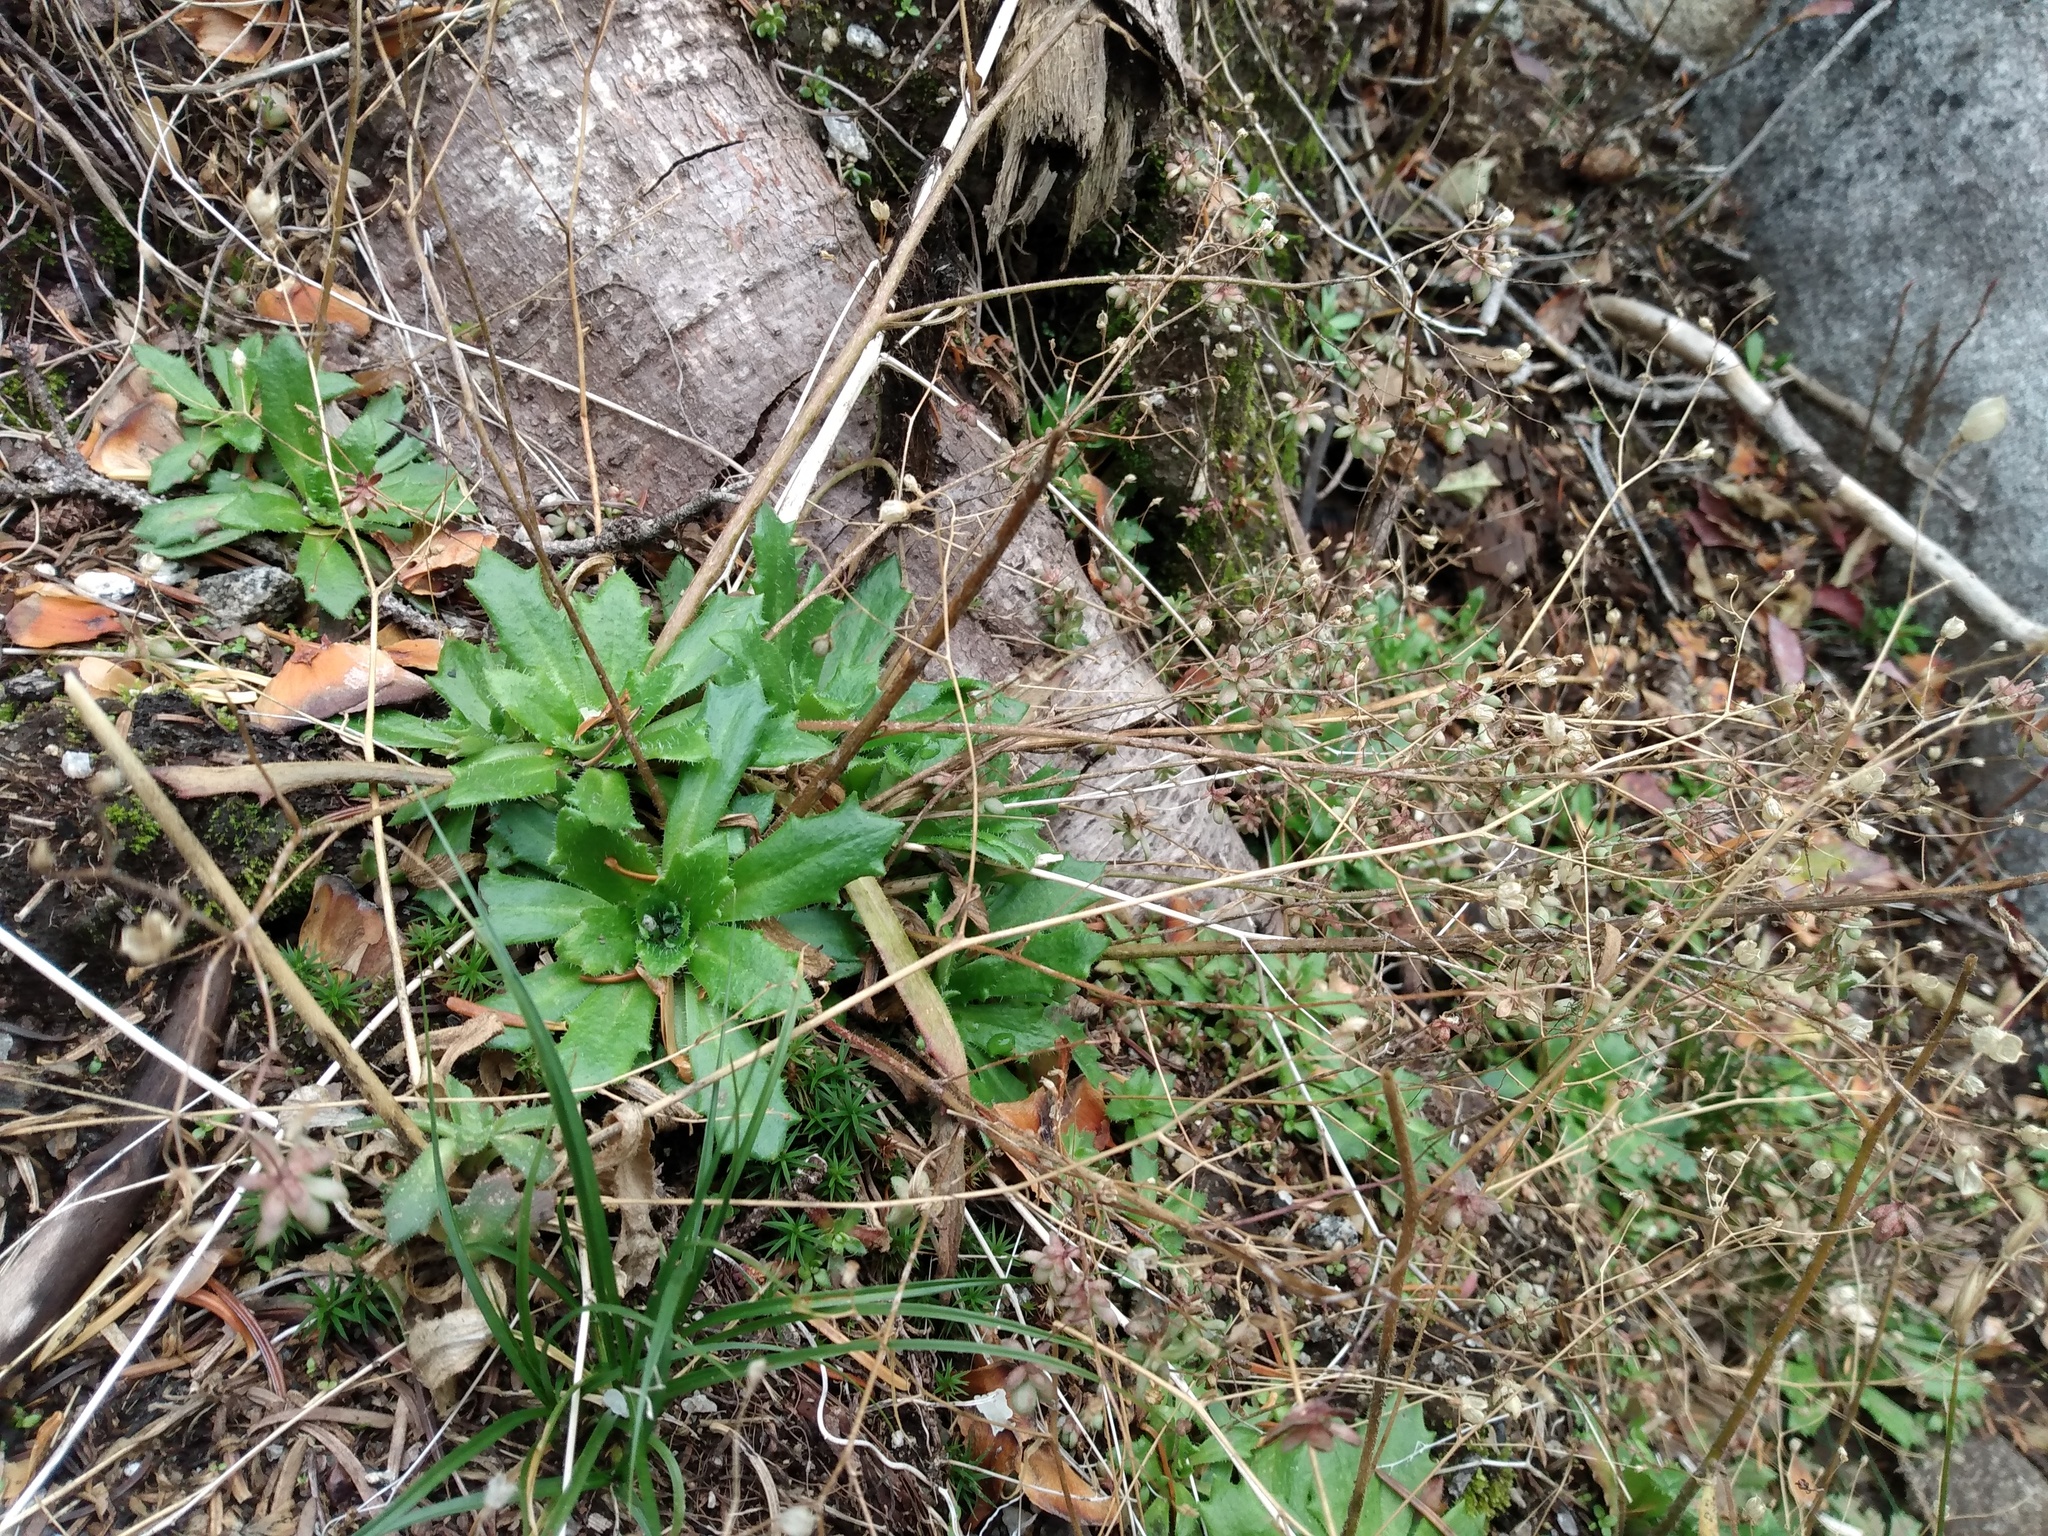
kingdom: Plantae
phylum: Tracheophyta
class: Magnoliopsida
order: Saxifragales
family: Saxifragaceae
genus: Micranthes
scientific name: Micranthes ferruginea
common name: Rusty saxifrage
